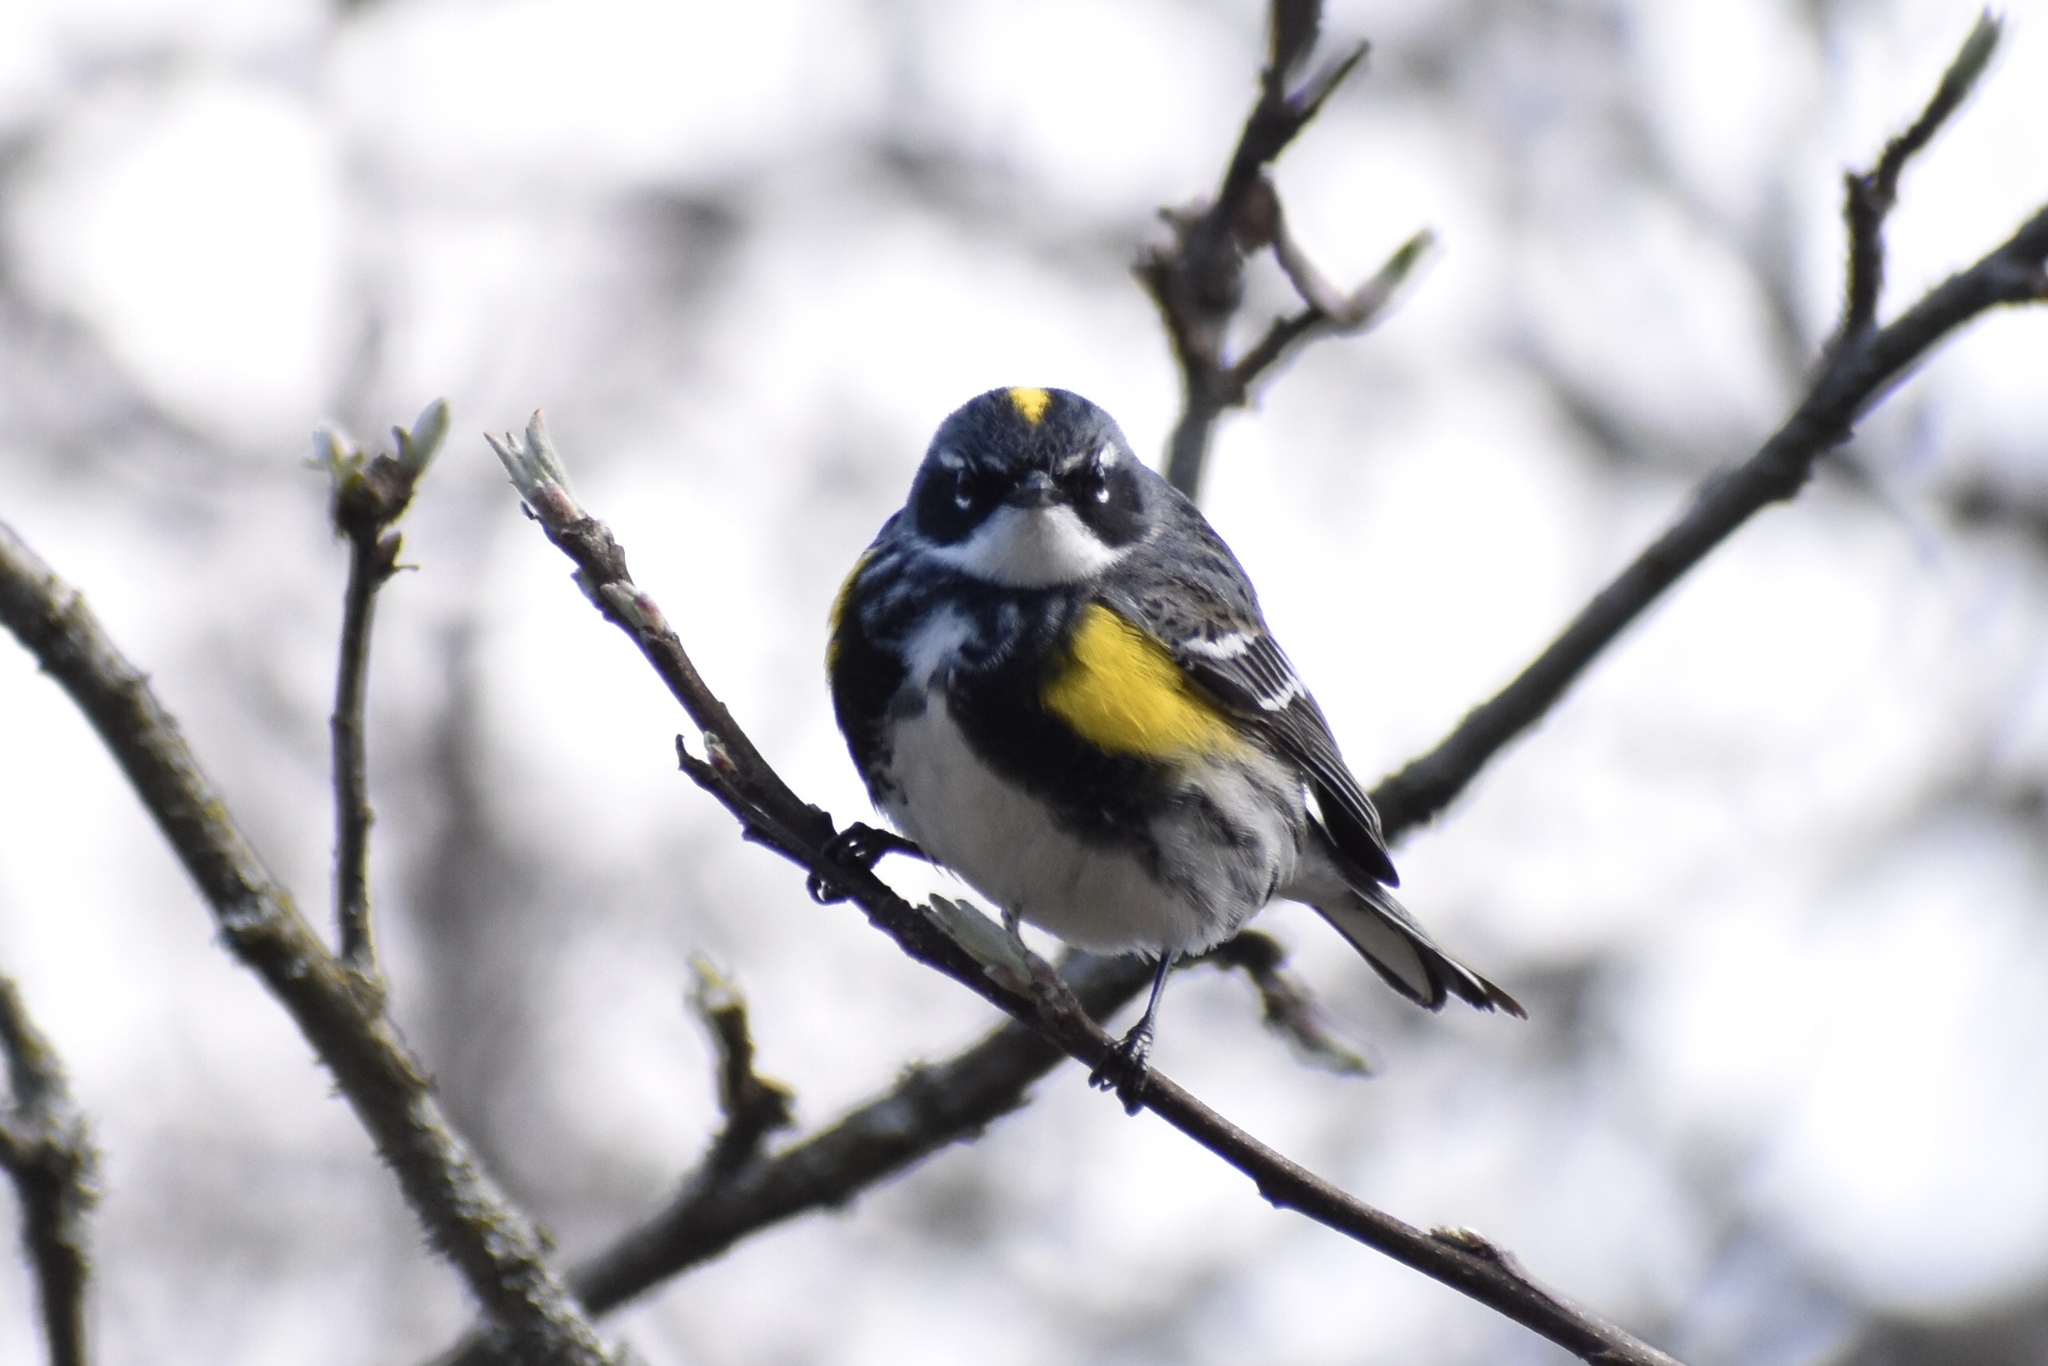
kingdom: Animalia
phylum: Chordata
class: Aves
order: Passeriformes
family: Parulidae
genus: Setophaga
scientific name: Setophaga coronata
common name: Myrtle warbler
